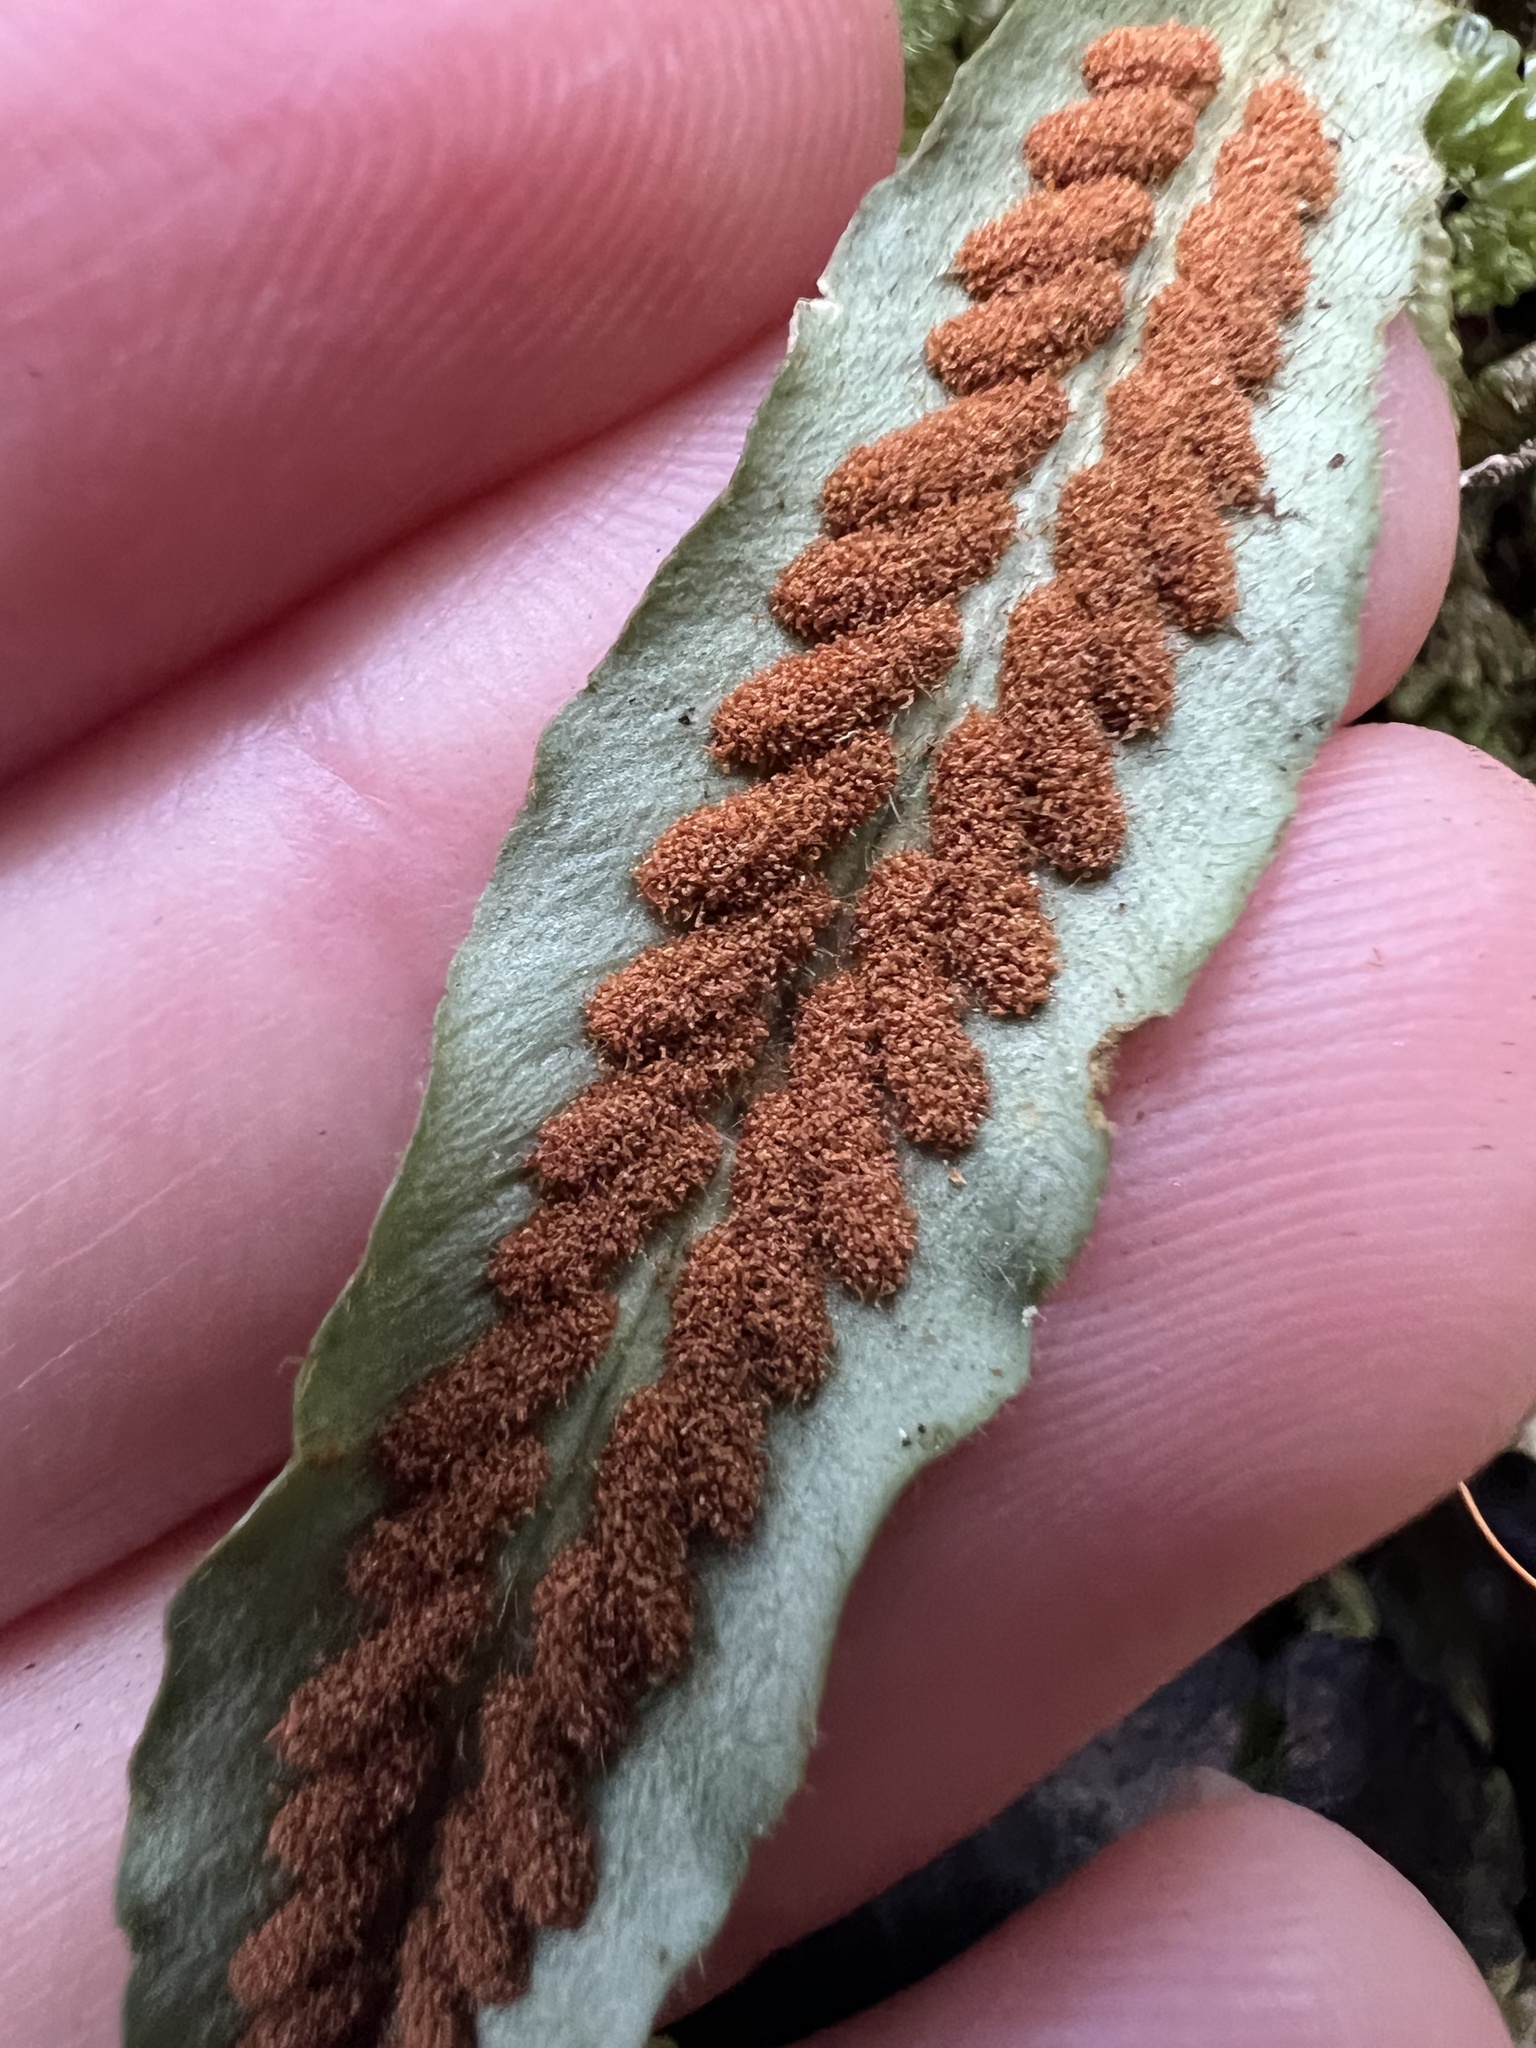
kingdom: Plantae
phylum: Tracheophyta
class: Polypodiopsida
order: Polypodiales
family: Polypodiaceae
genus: Notogrammitis
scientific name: Notogrammitis pseudociliata
